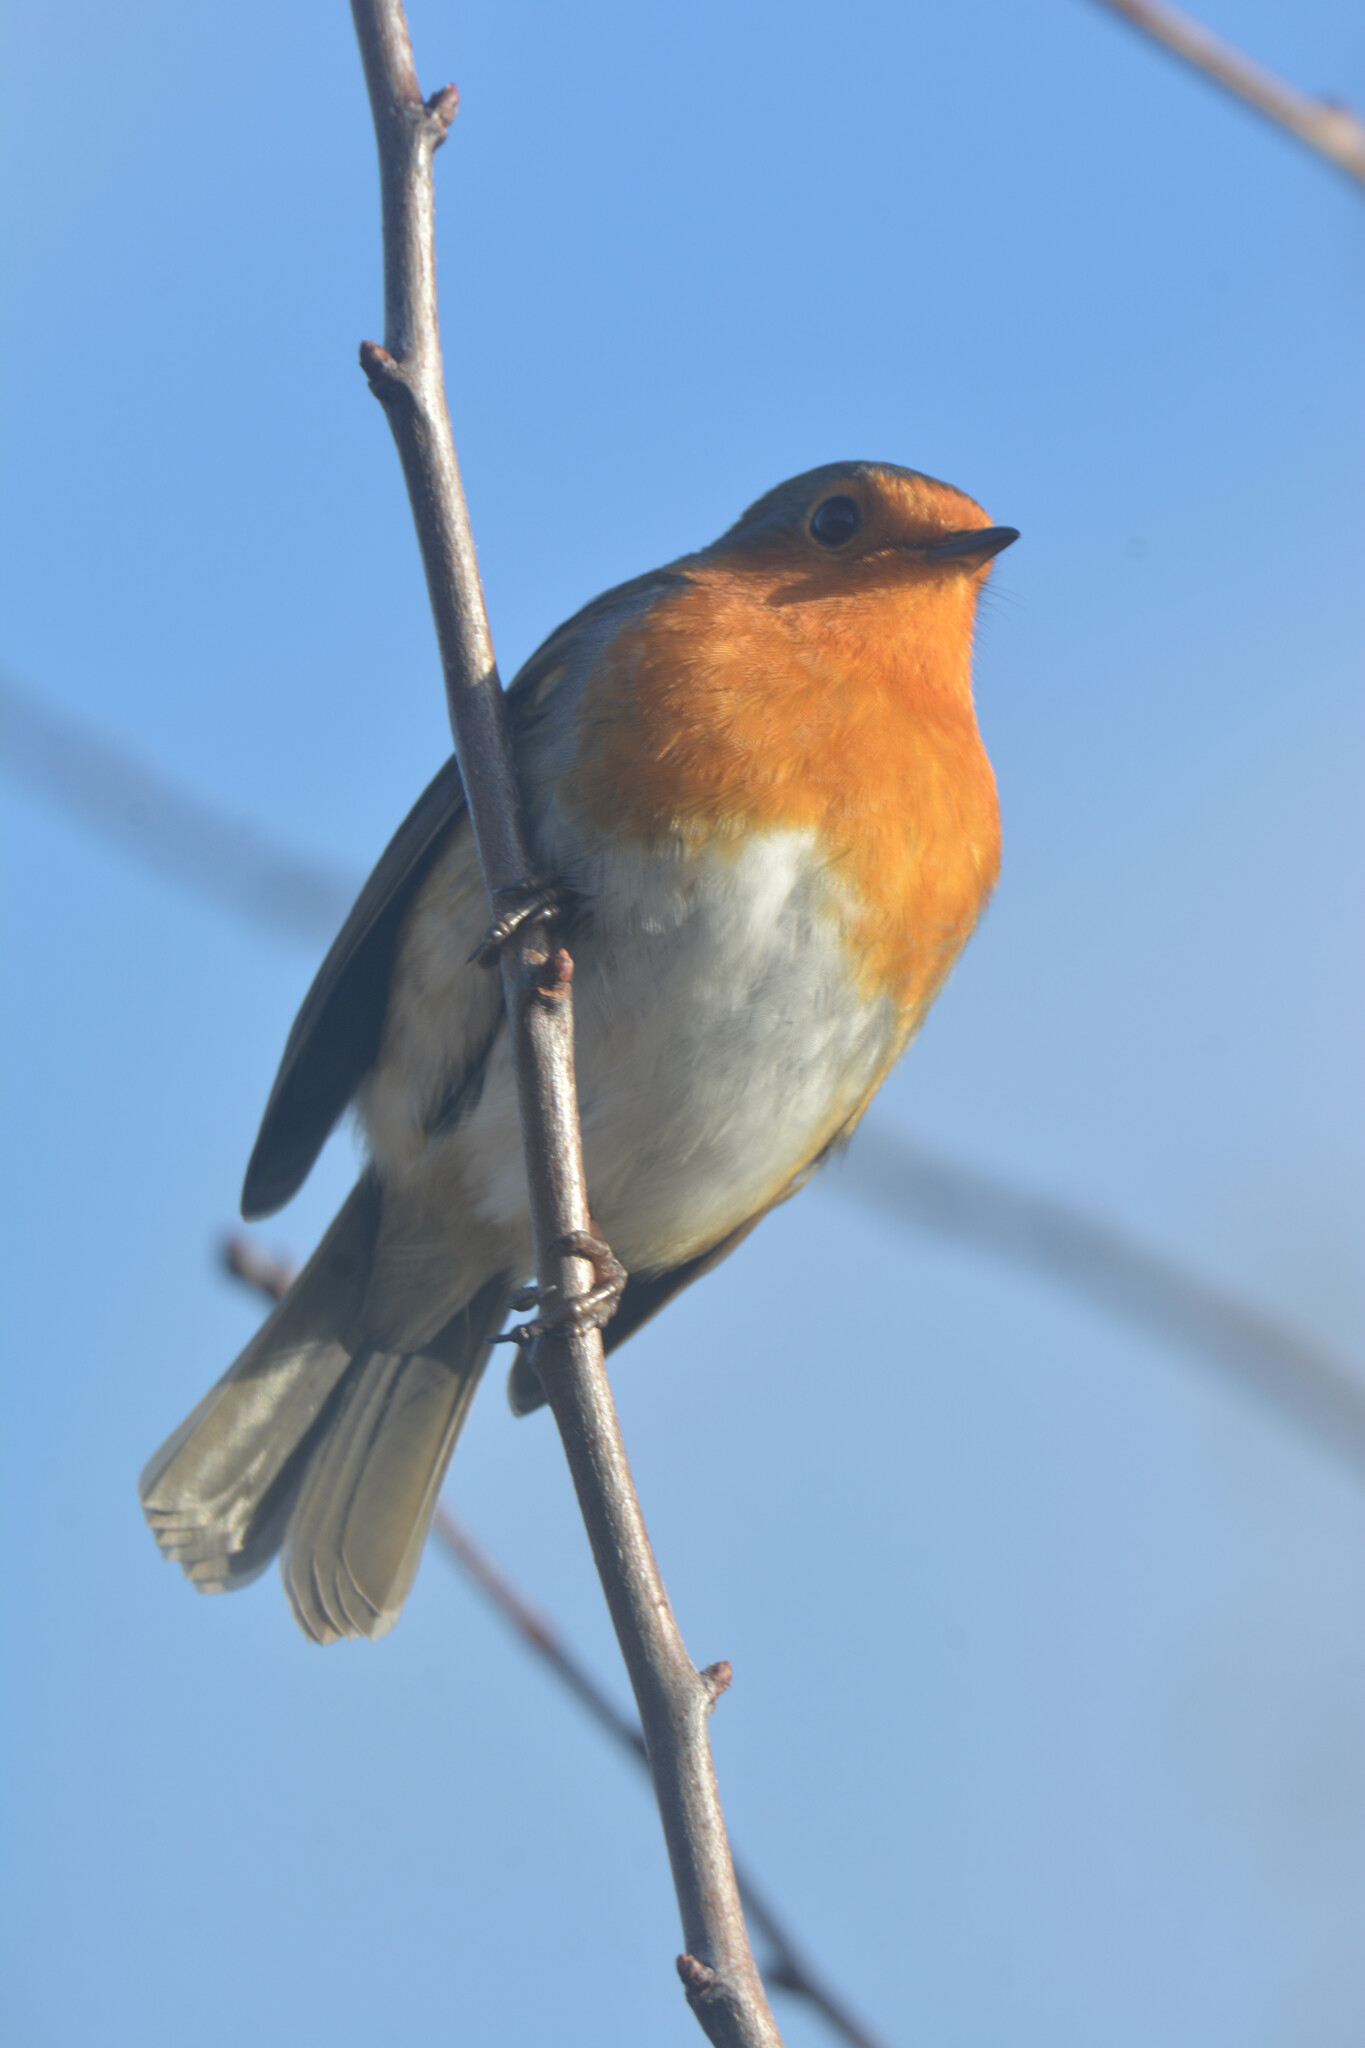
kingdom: Animalia
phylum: Chordata
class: Aves
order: Passeriformes
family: Muscicapidae
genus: Erithacus
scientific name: Erithacus rubecula
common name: European robin
